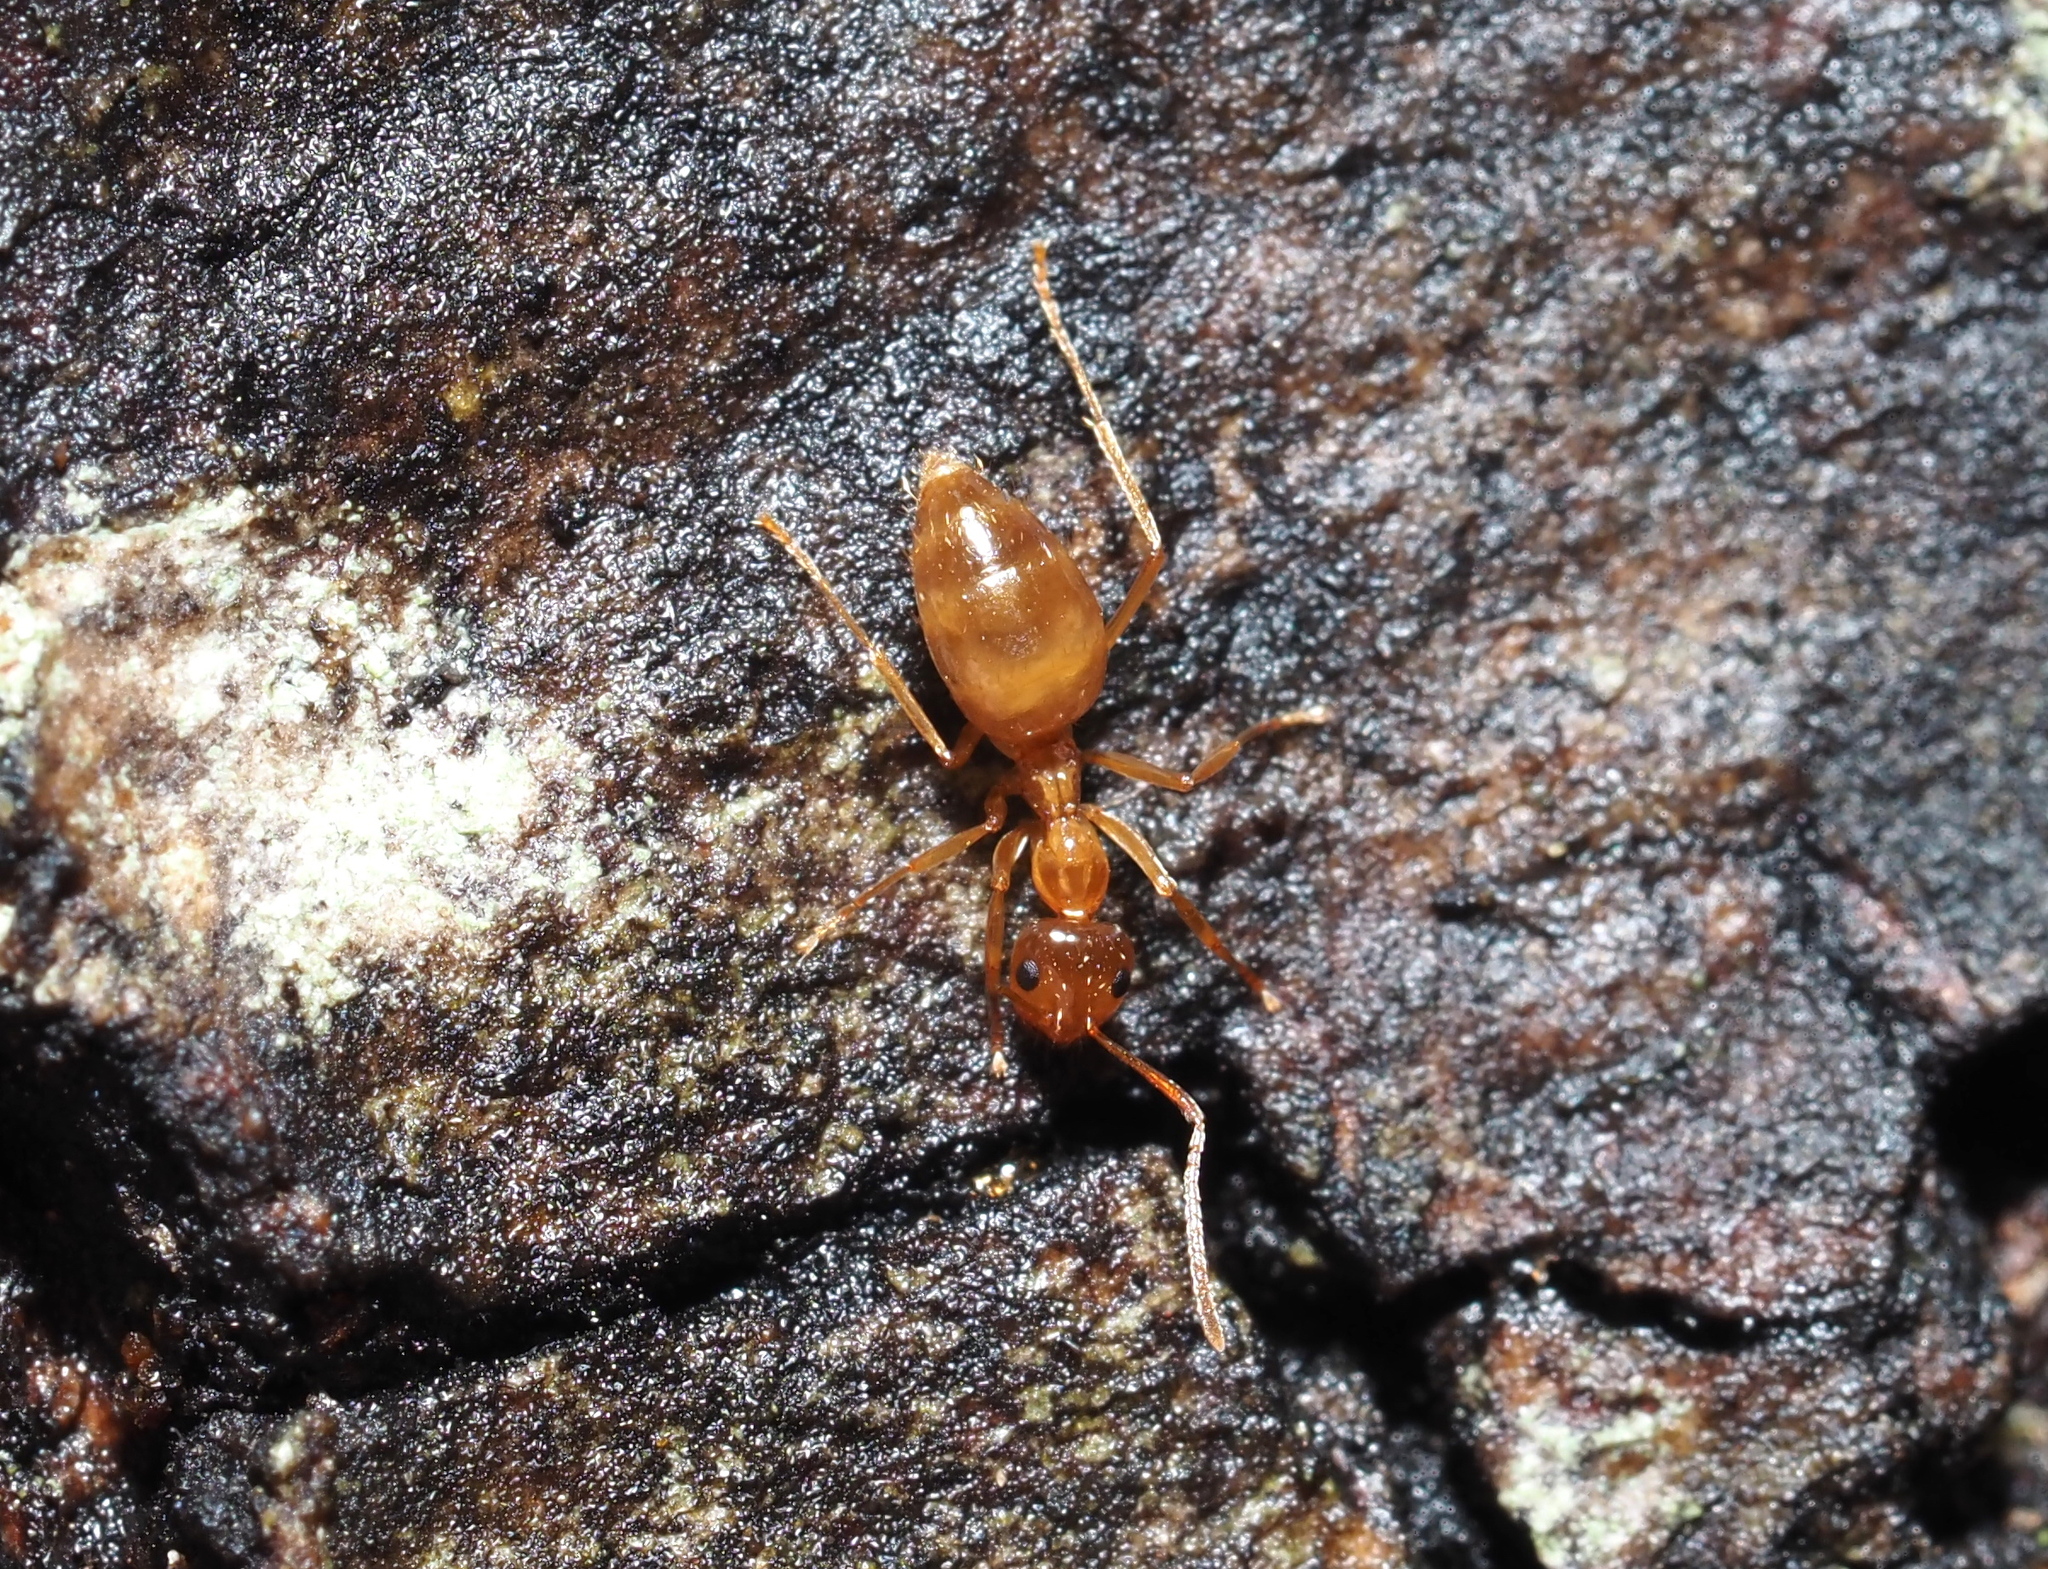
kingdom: Animalia
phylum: Arthropoda
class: Insecta
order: Hymenoptera
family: Formicidae
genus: Prenolepis
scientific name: Prenolepis imparis
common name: Small honey ant
